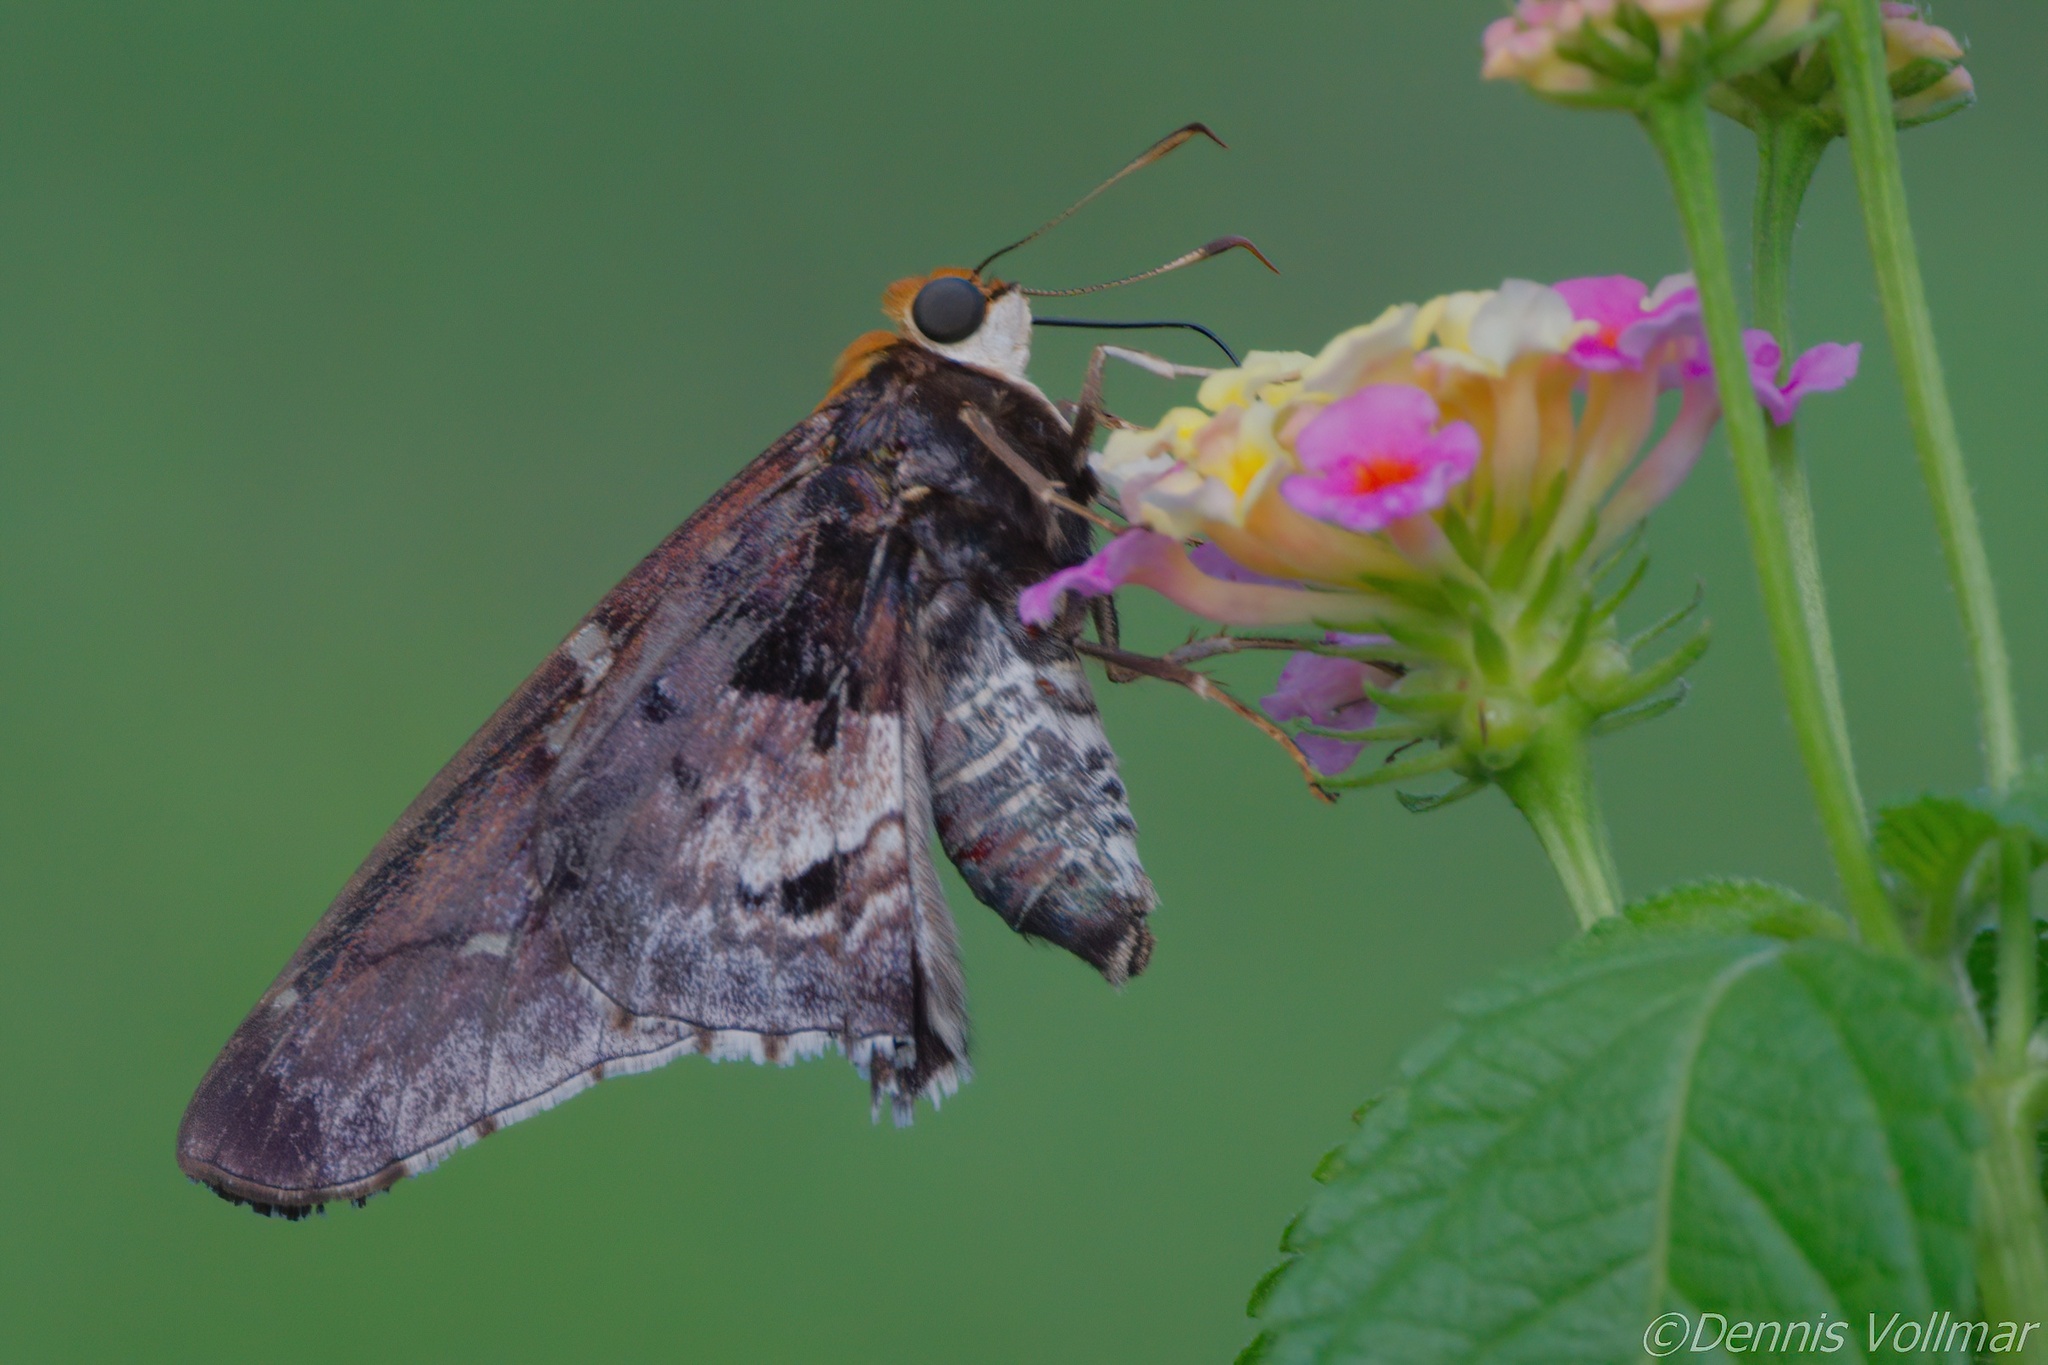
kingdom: Animalia
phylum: Arthropoda
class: Insecta
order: Lepidoptera
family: Hesperiidae
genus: Proteides
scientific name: Proteides mercurius
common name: Mercurial skipper
